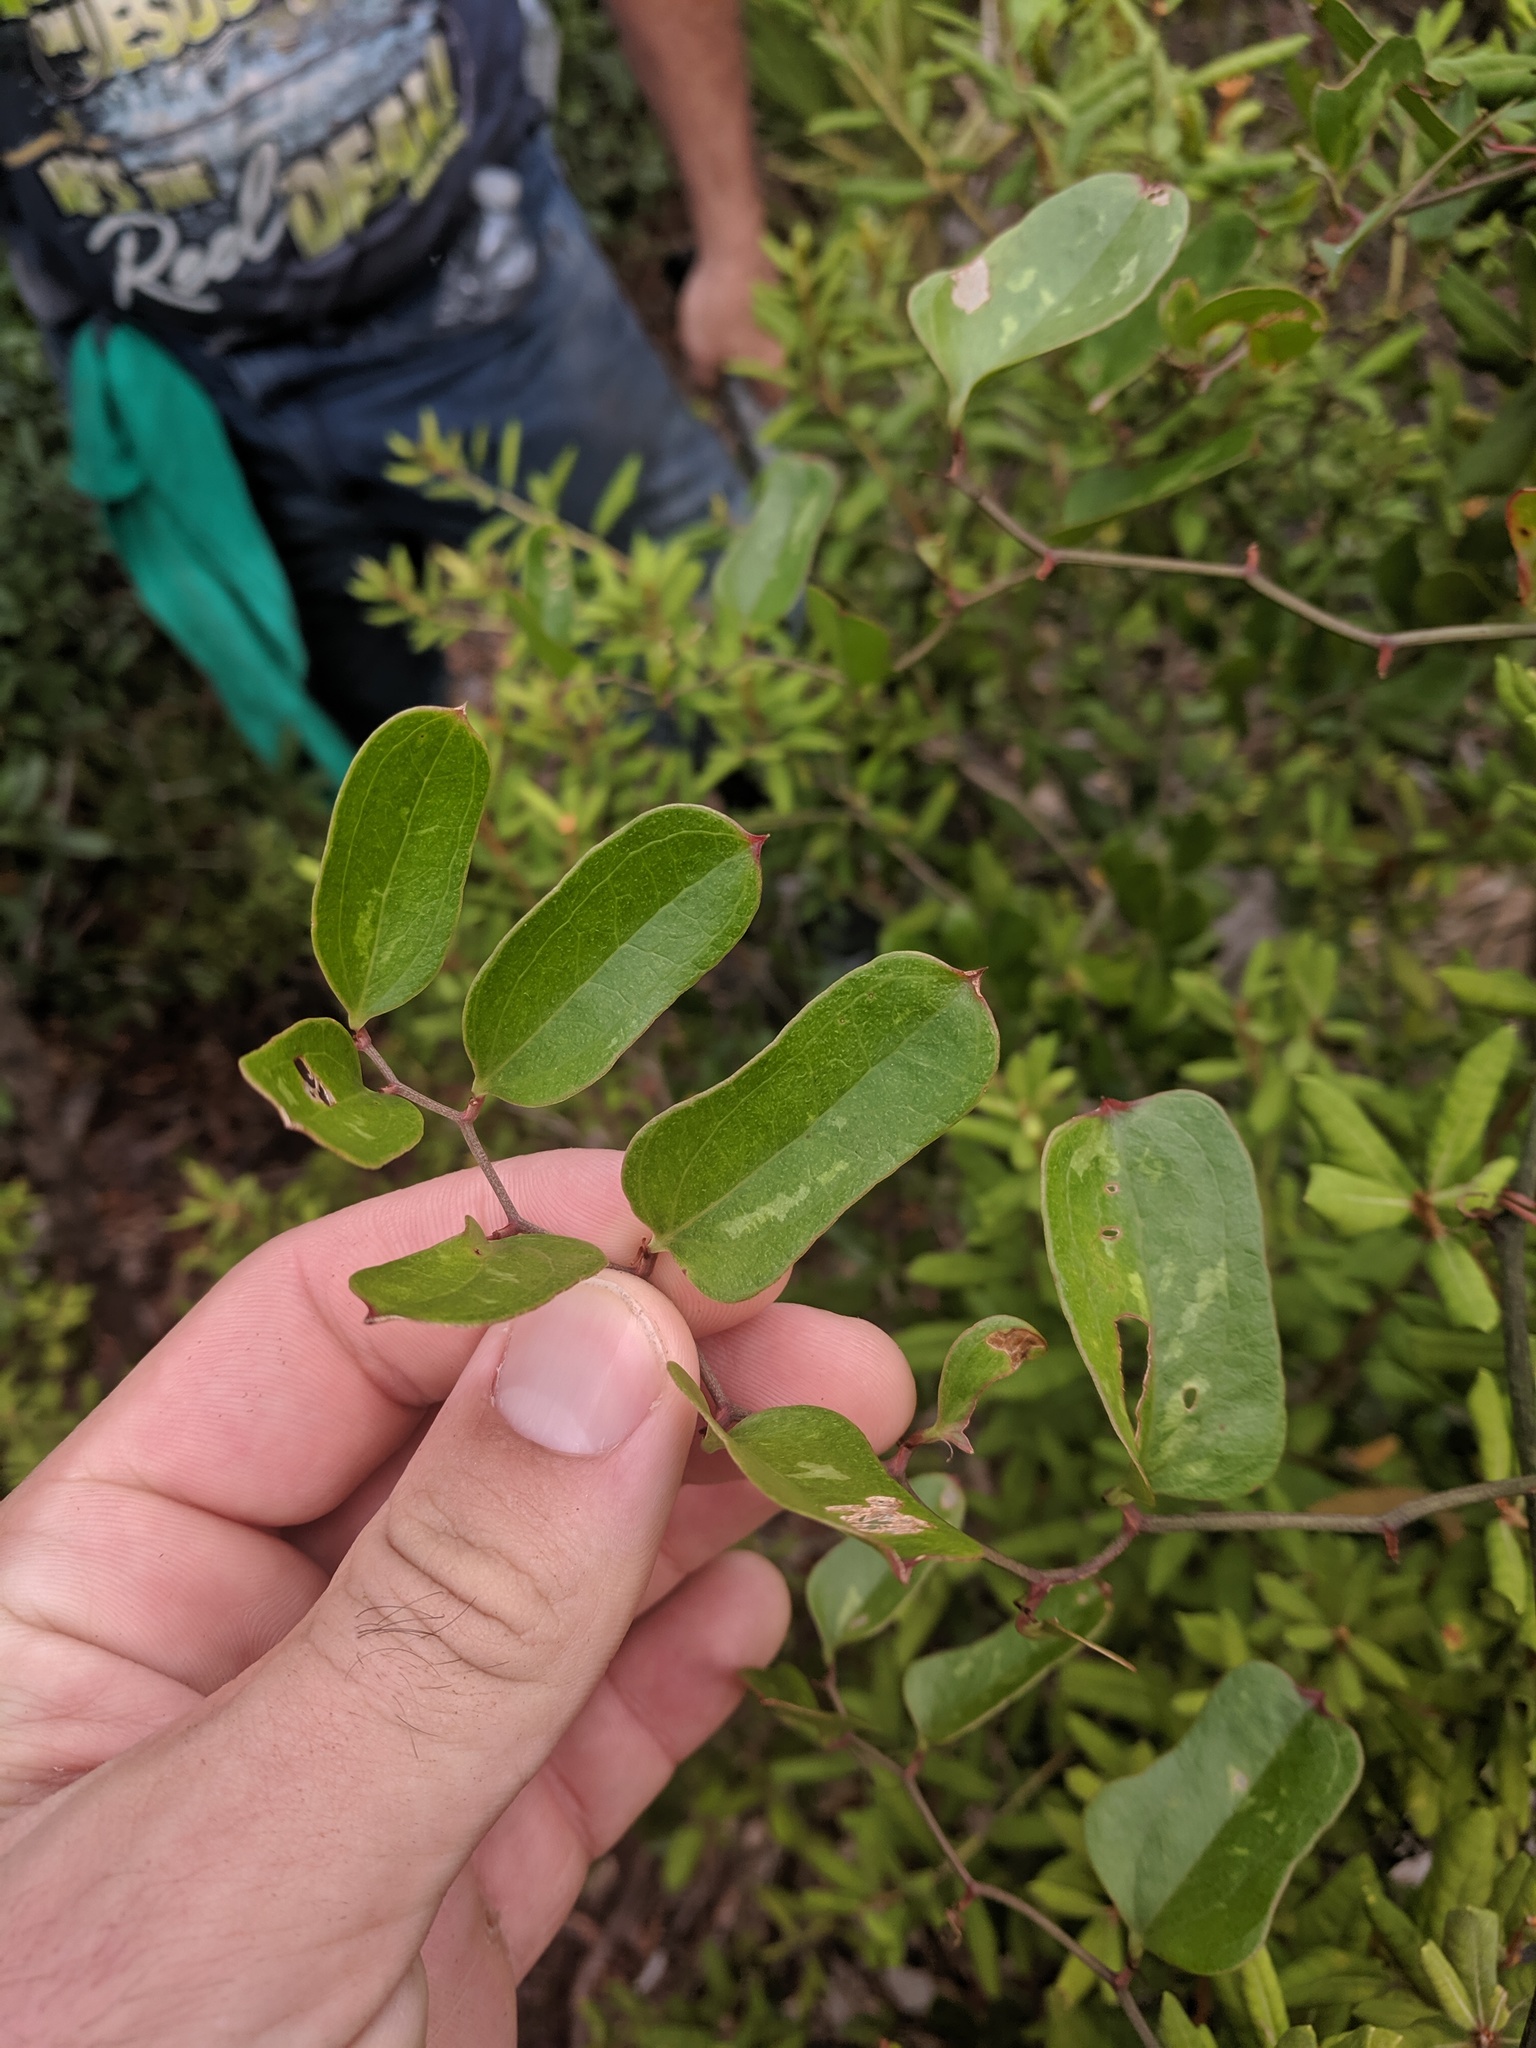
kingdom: Plantae
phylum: Tracheophyta
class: Liliopsida
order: Liliales
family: Smilacaceae
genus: Smilax
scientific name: Smilax auriculata
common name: Wild bamboo
